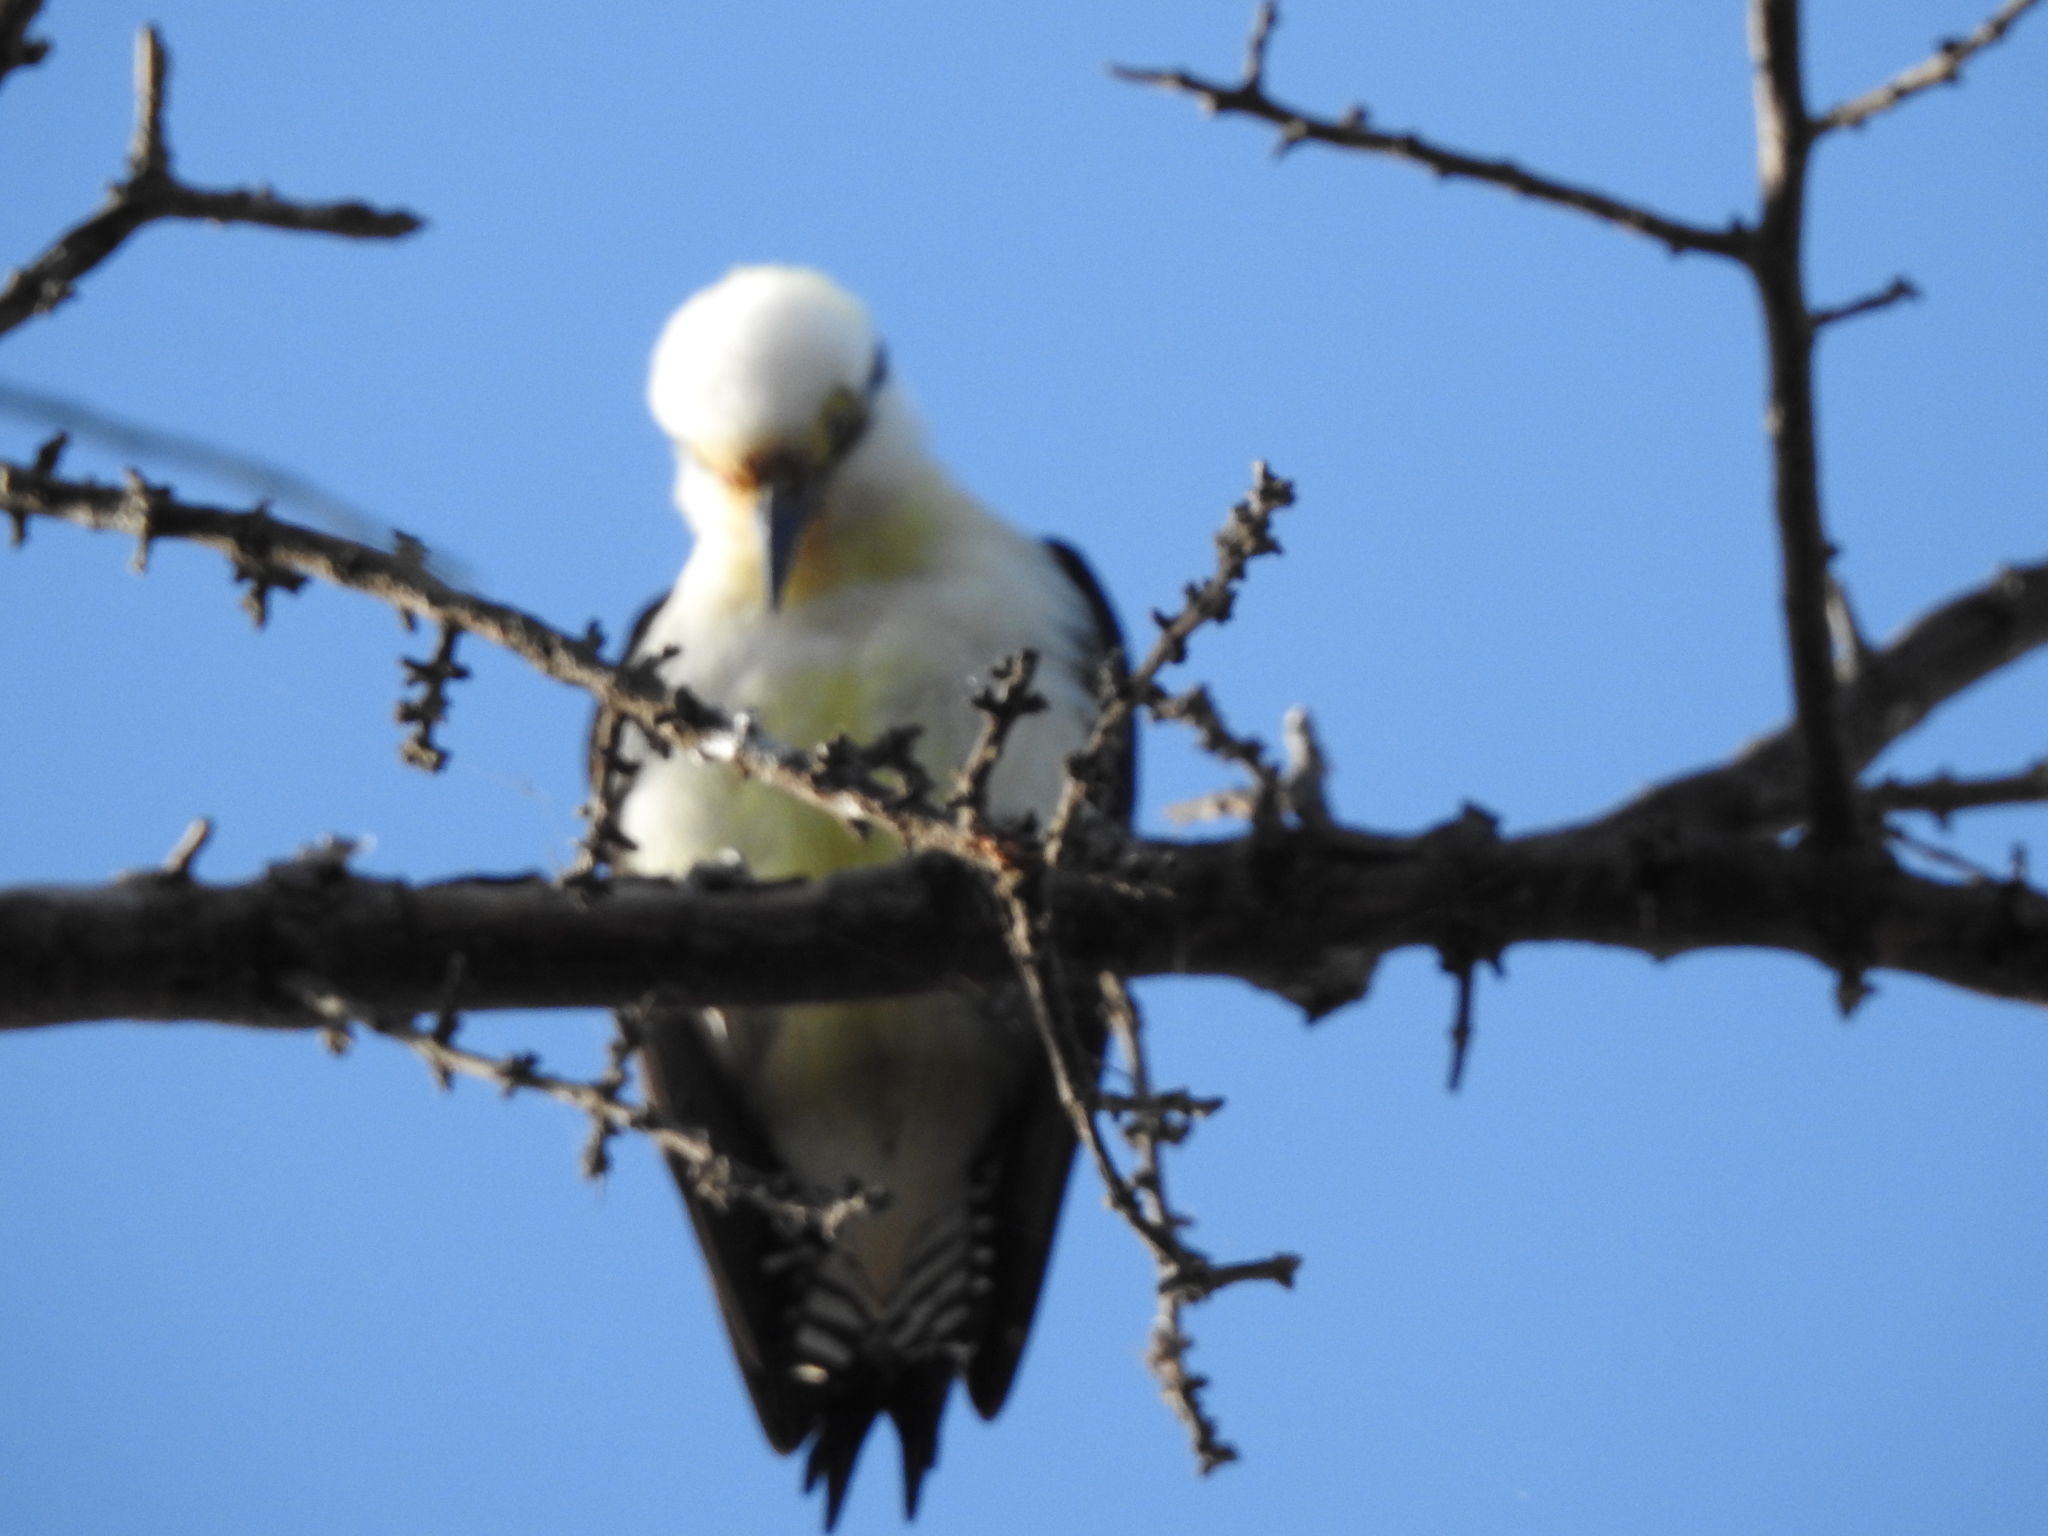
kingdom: Animalia
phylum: Chordata
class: Aves
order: Piciformes
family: Picidae
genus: Melanerpes
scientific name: Melanerpes candidus
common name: White woodpecker
